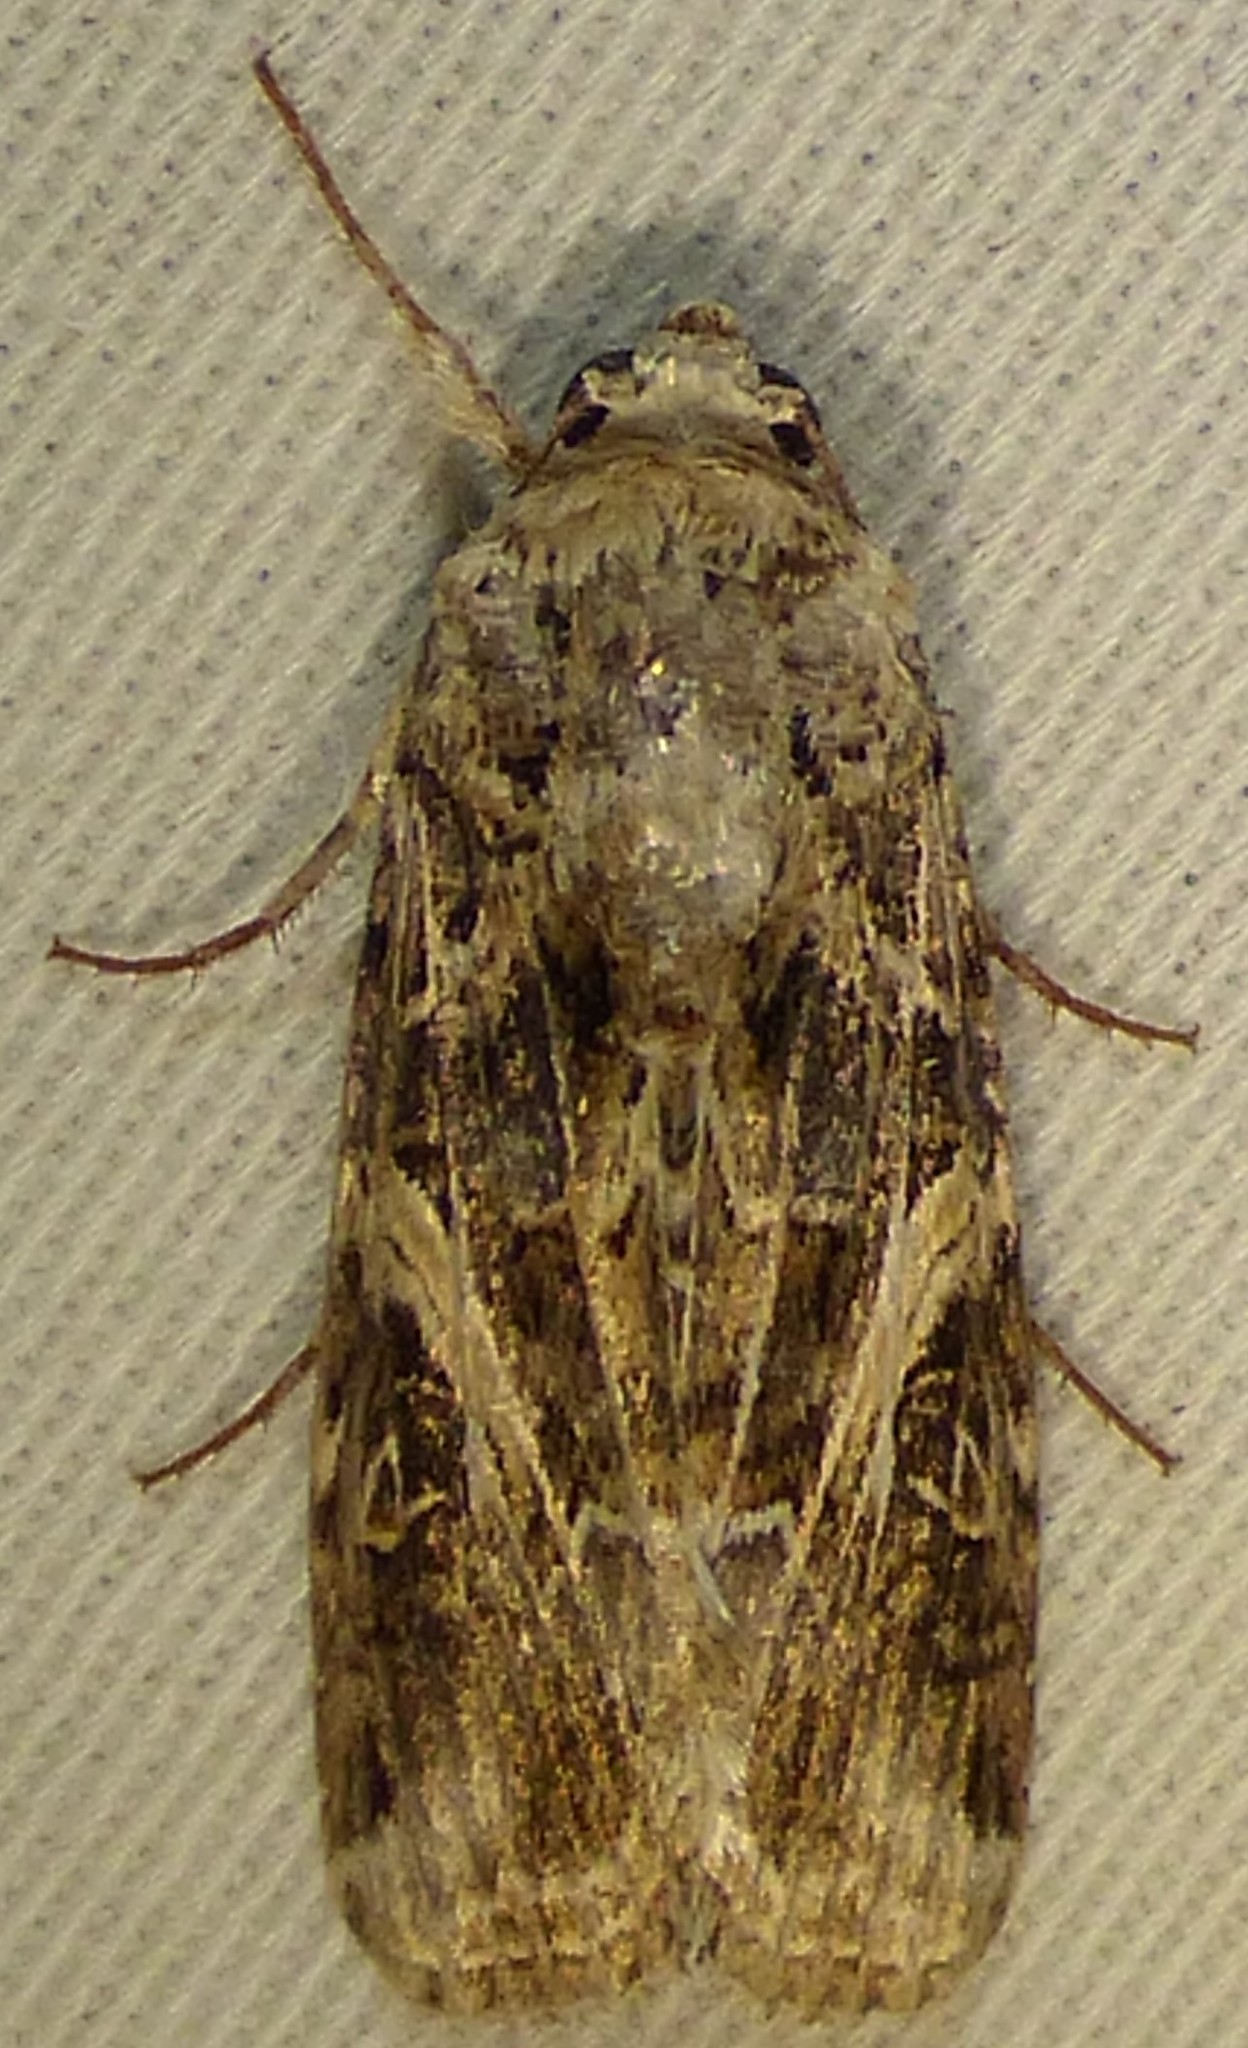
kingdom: Animalia
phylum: Arthropoda
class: Insecta
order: Lepidoptera
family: Noctuidae
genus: Spodoptera
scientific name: Spodoptera ornithogalli
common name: Yellow-striped armyworm
